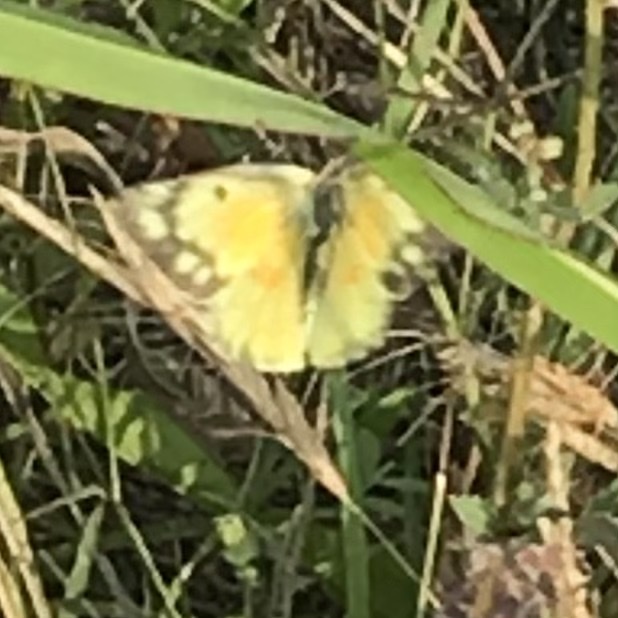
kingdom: Animalia
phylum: Arthropoda
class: Insecta
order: Lepidoptera
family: Pieridae
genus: Colias
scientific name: Colias eurytheme
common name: Alfalfa butterfly
